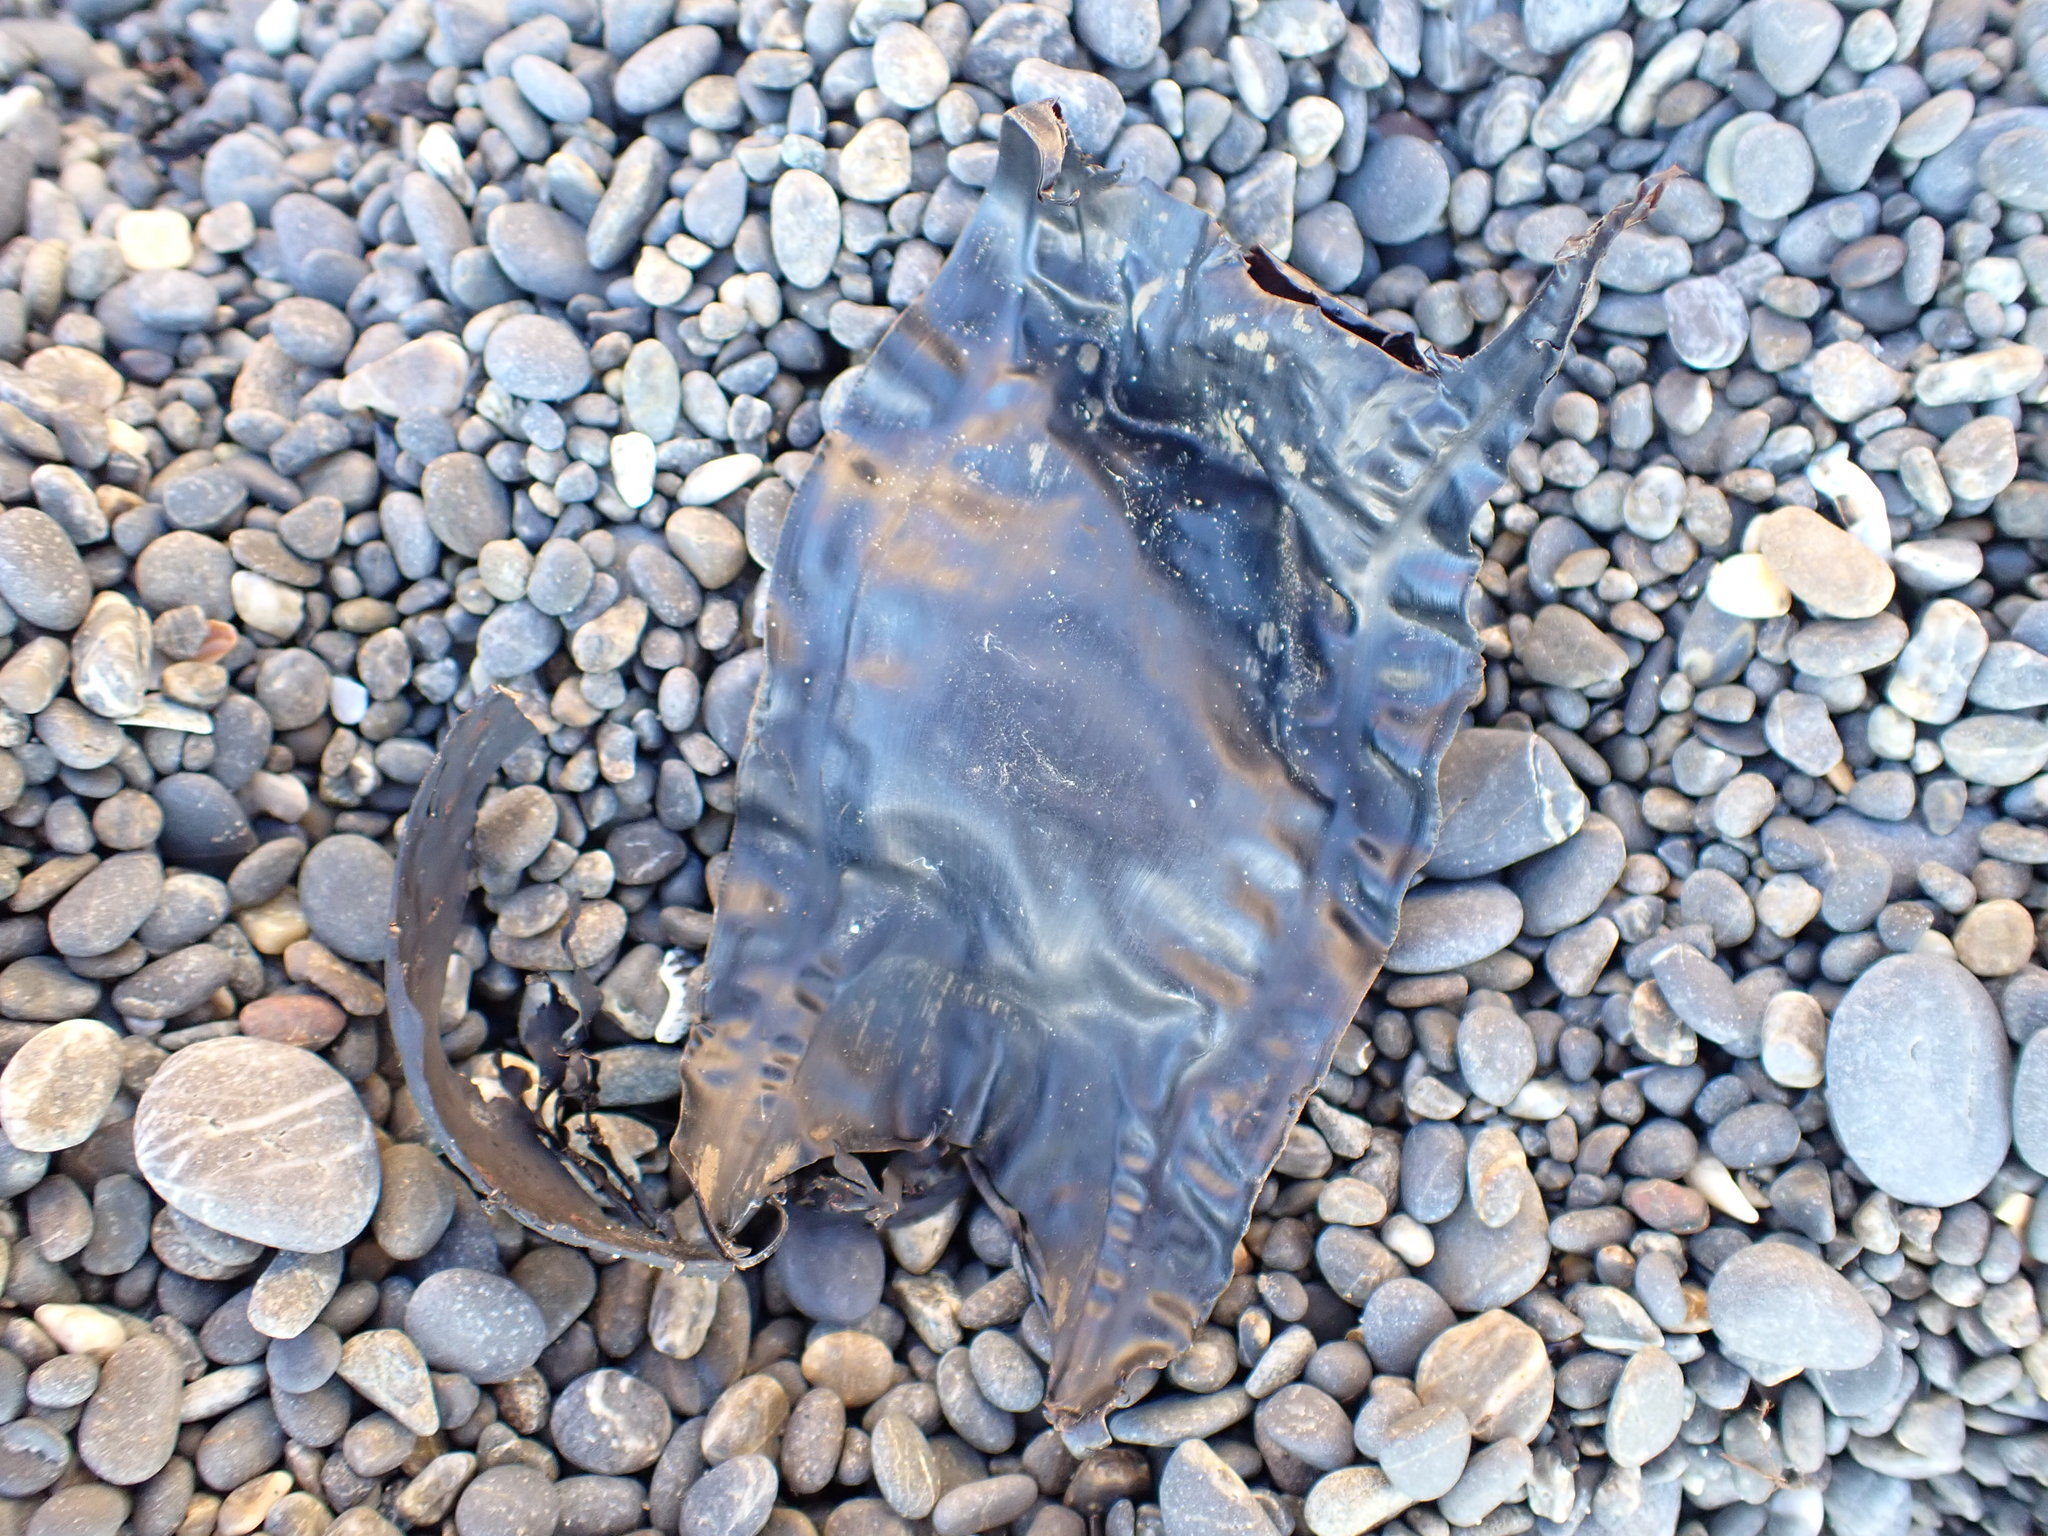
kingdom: Animalia
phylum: Chordata
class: Elasmobranchii
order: Rajiformes
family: Rajidae
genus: Zearaja
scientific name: Zearaja nasuta
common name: New zealand rough skate
